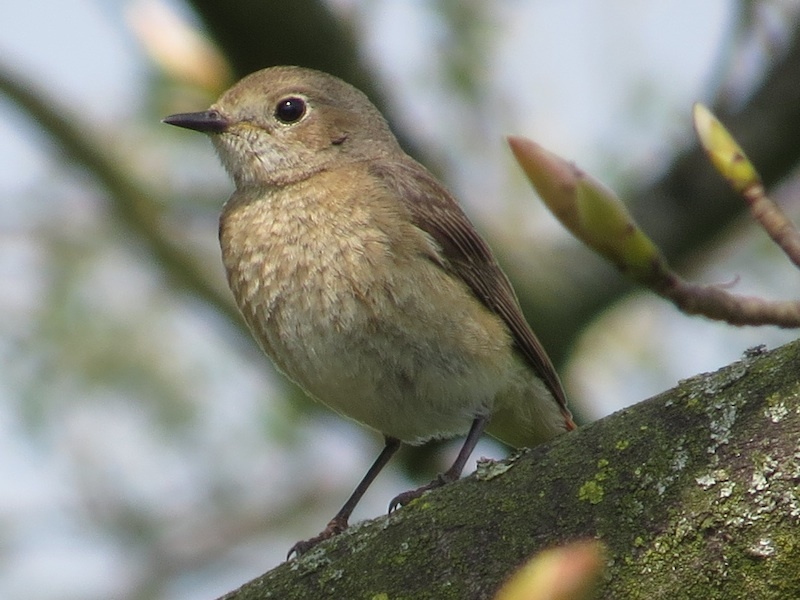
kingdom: Animalia
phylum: Chordata
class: Aves
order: Passeriformes
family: Muscicapidae
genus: Phoenicurus
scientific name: Phoenicurus phoenicurus
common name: Common redstart
